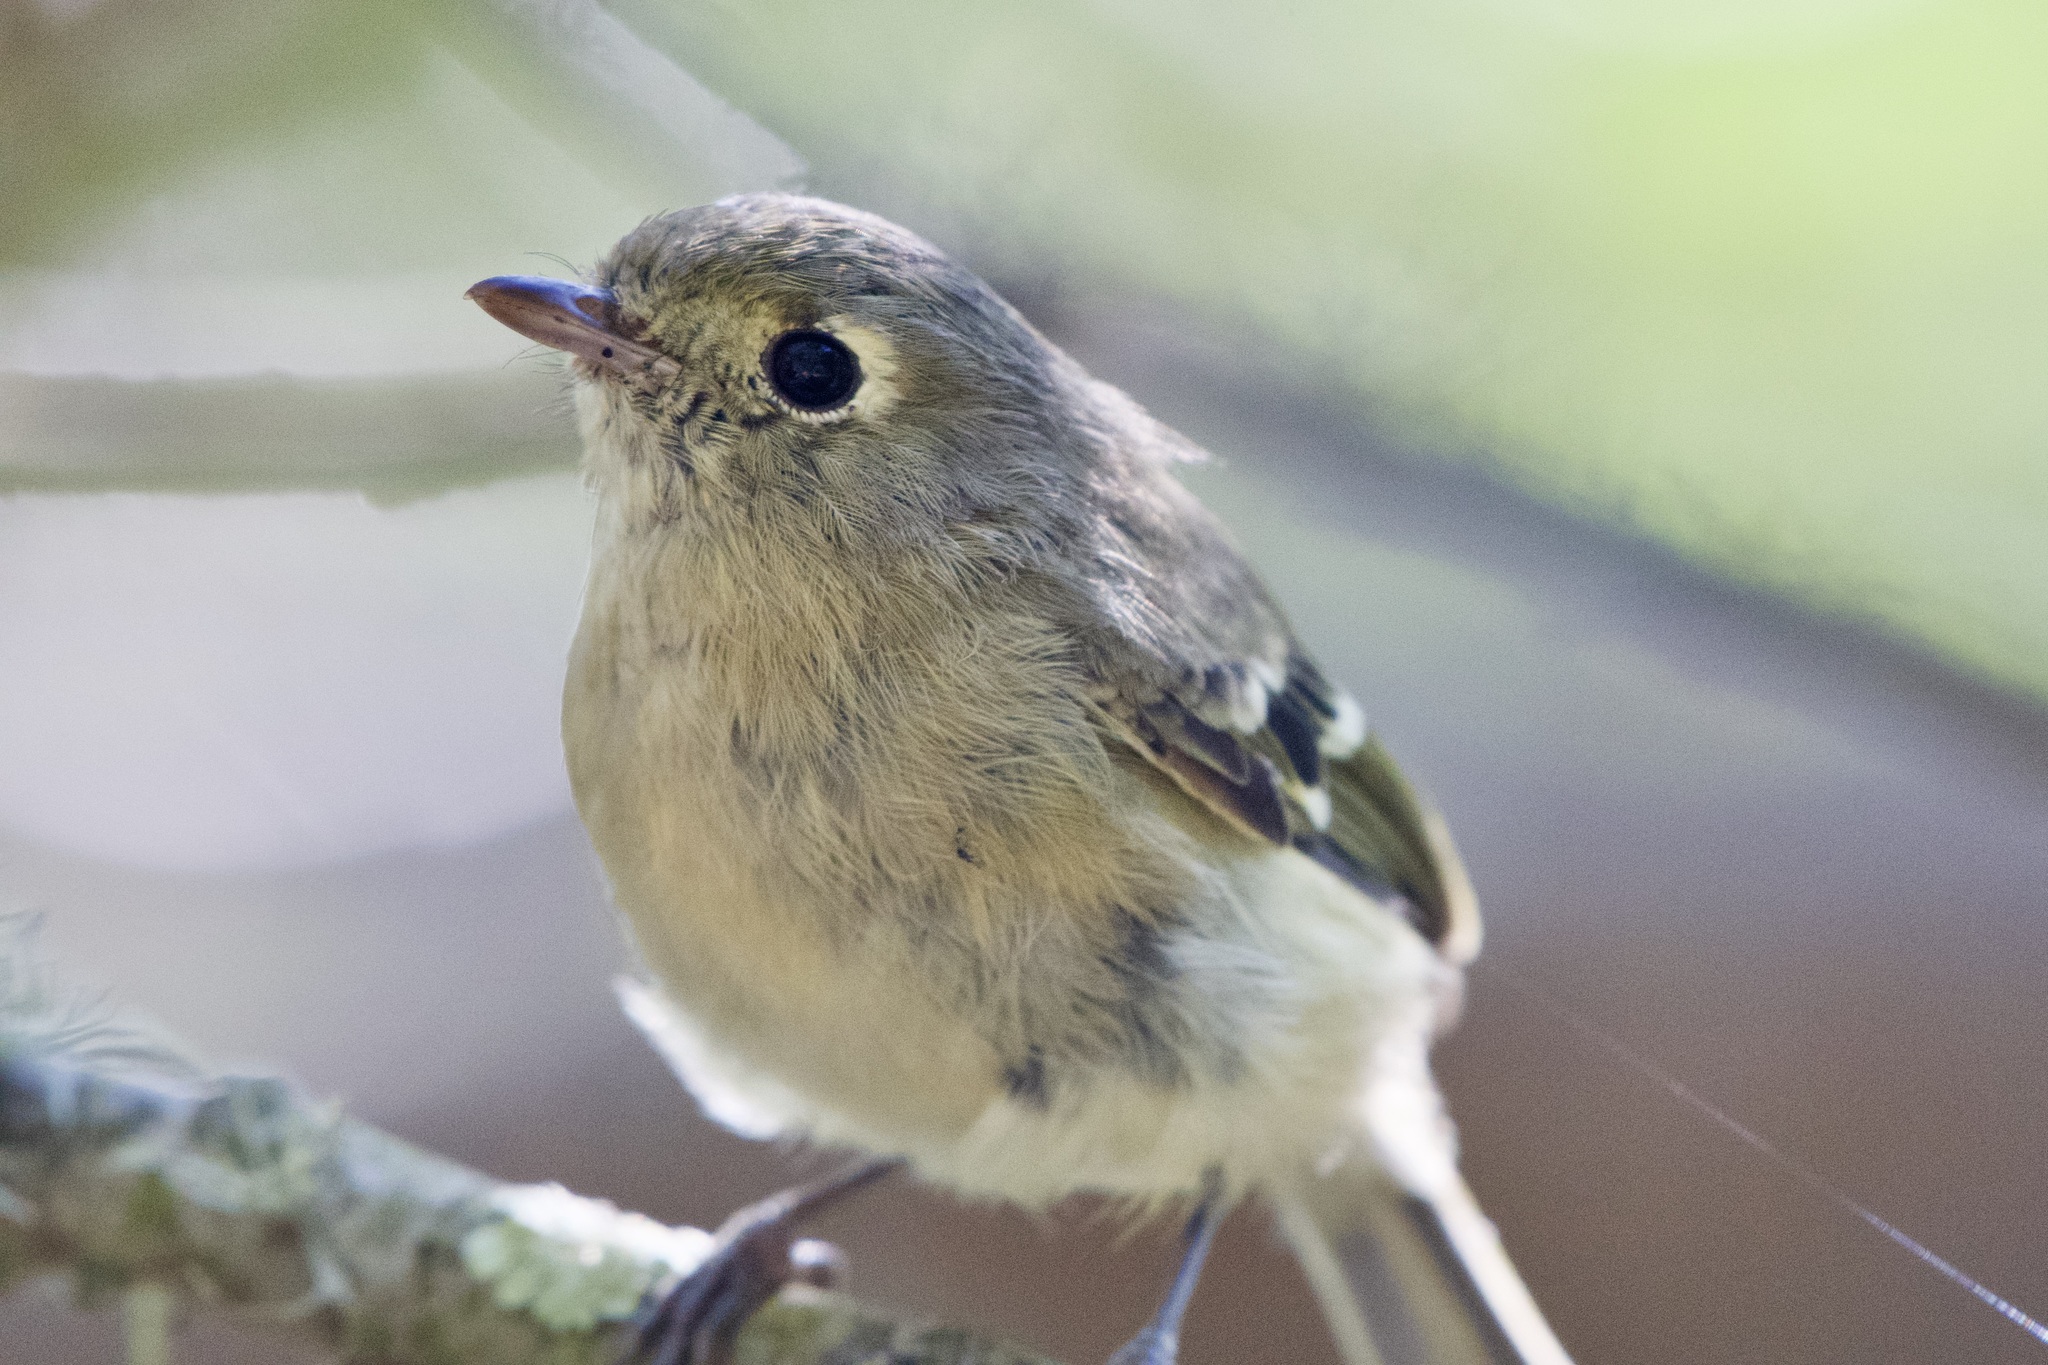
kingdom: Animalia
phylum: Chordata
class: Aves
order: Passeriformes
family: Vireonidae
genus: Vireo
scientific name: Vireo huttoni
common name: Hutton's vireo
